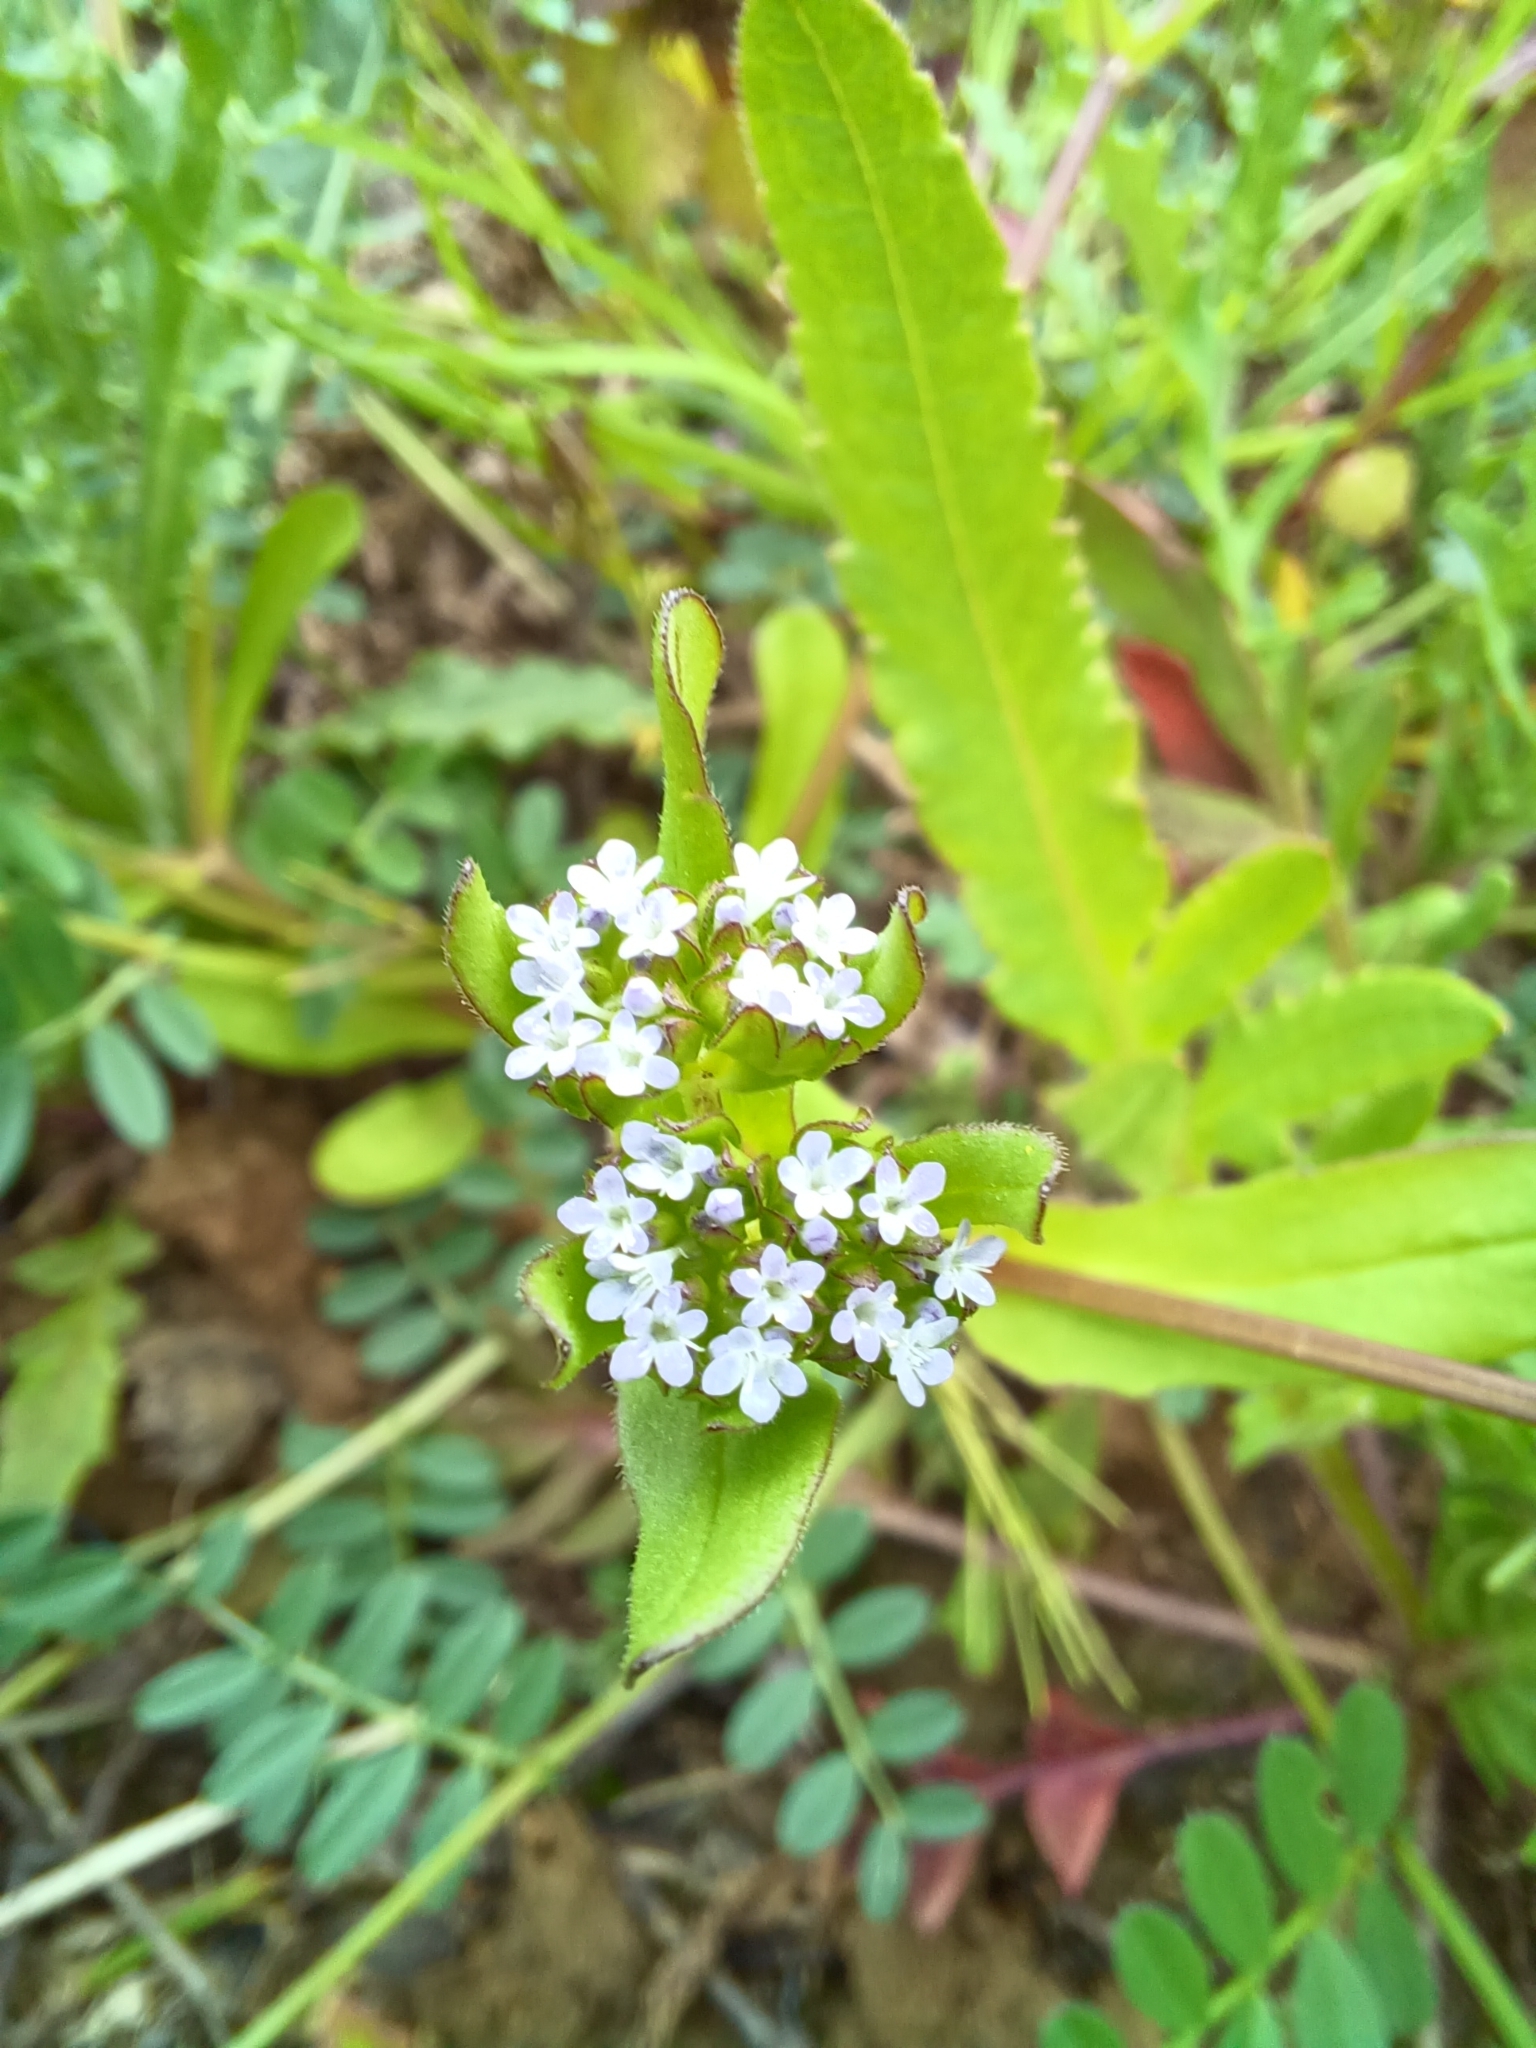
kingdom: Plantae
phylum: Tracheophyta
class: Magnoliopsida
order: Dipsacales
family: Caprifoliaceae
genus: Valerianella
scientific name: Valerianella locusta
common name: Common cornsalad
